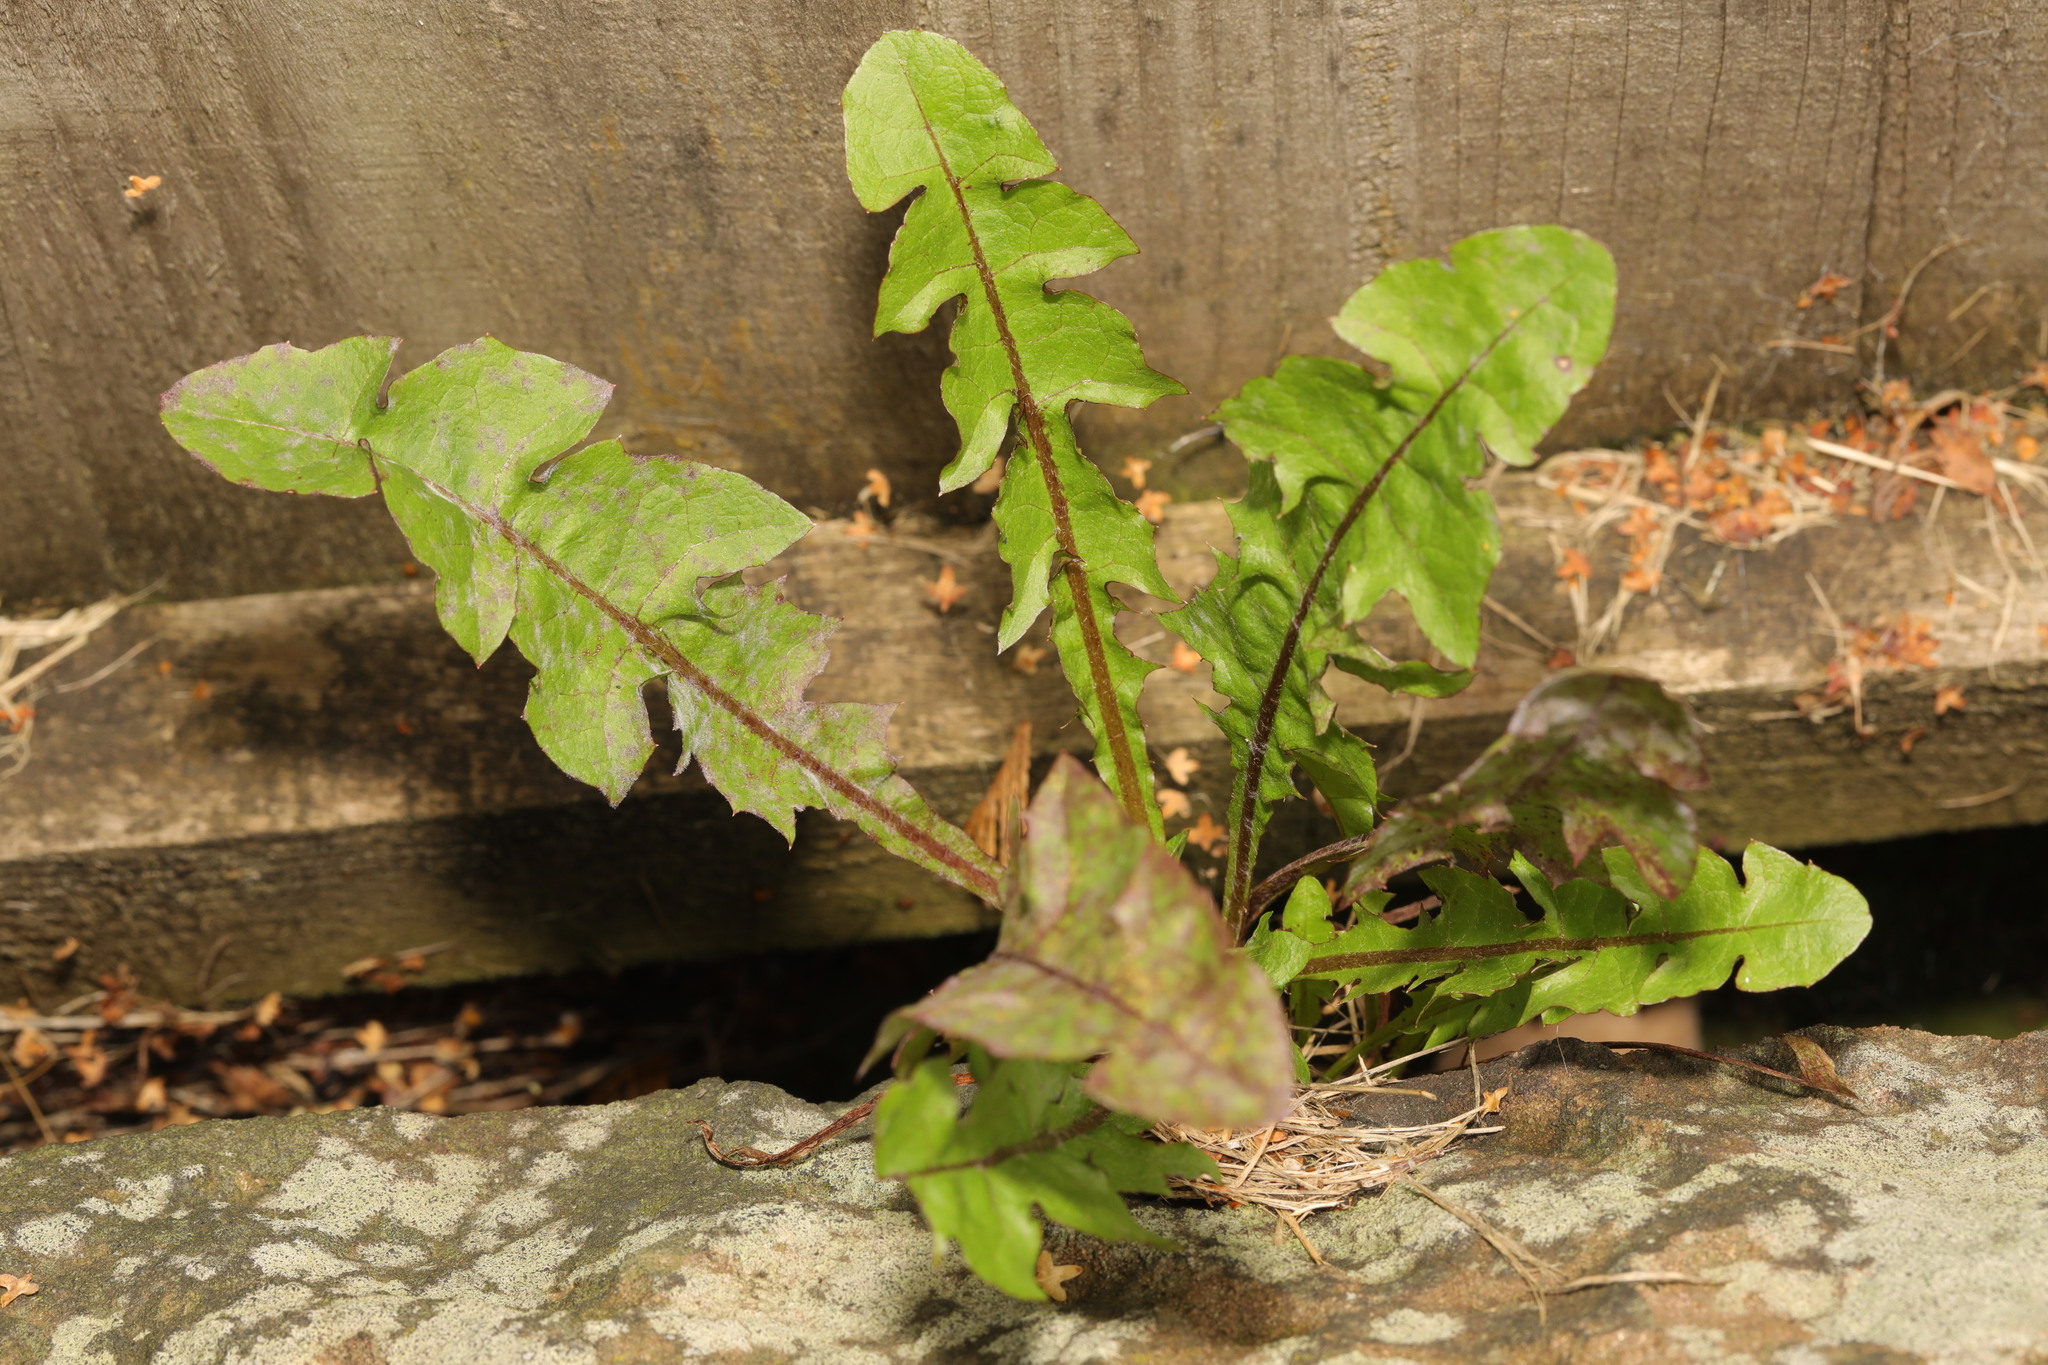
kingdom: Plantae
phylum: Tracheophyta
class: Magnoliopsida
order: Asterales
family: Asteraceae
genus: Taraxacum
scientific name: Taraxacum officinale
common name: Common dandelion
